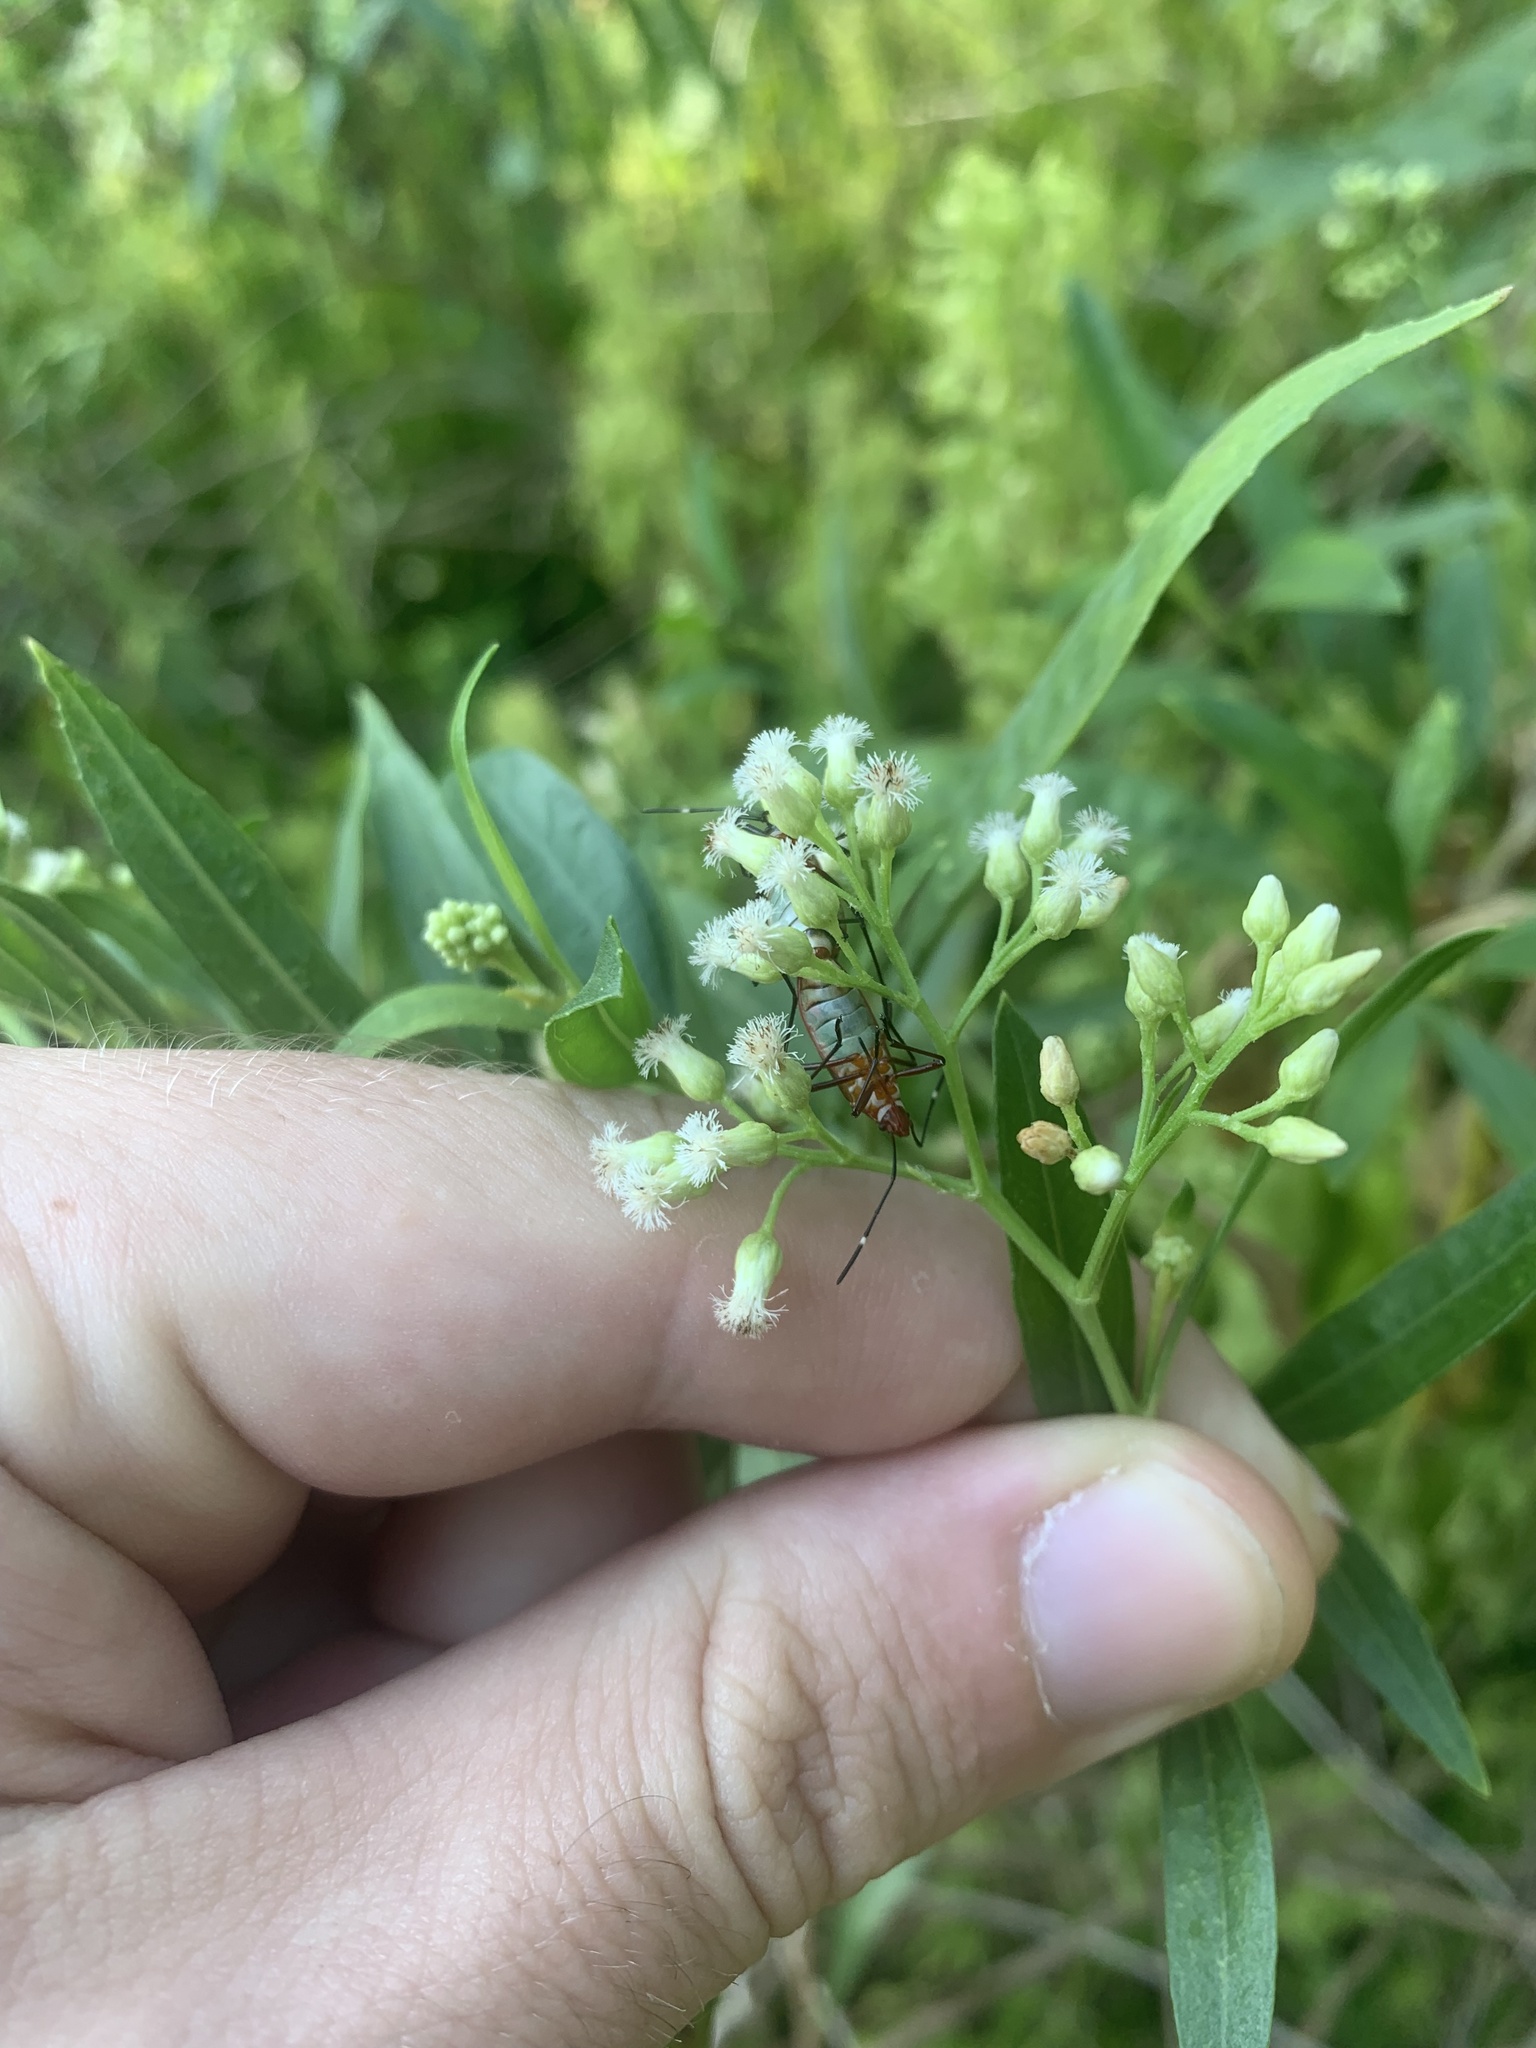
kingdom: Animalia
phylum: Arthropoda
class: Insecta
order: Hemiptera
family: Pyrrhocoridae
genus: Dysdercus
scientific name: Dysdercus
